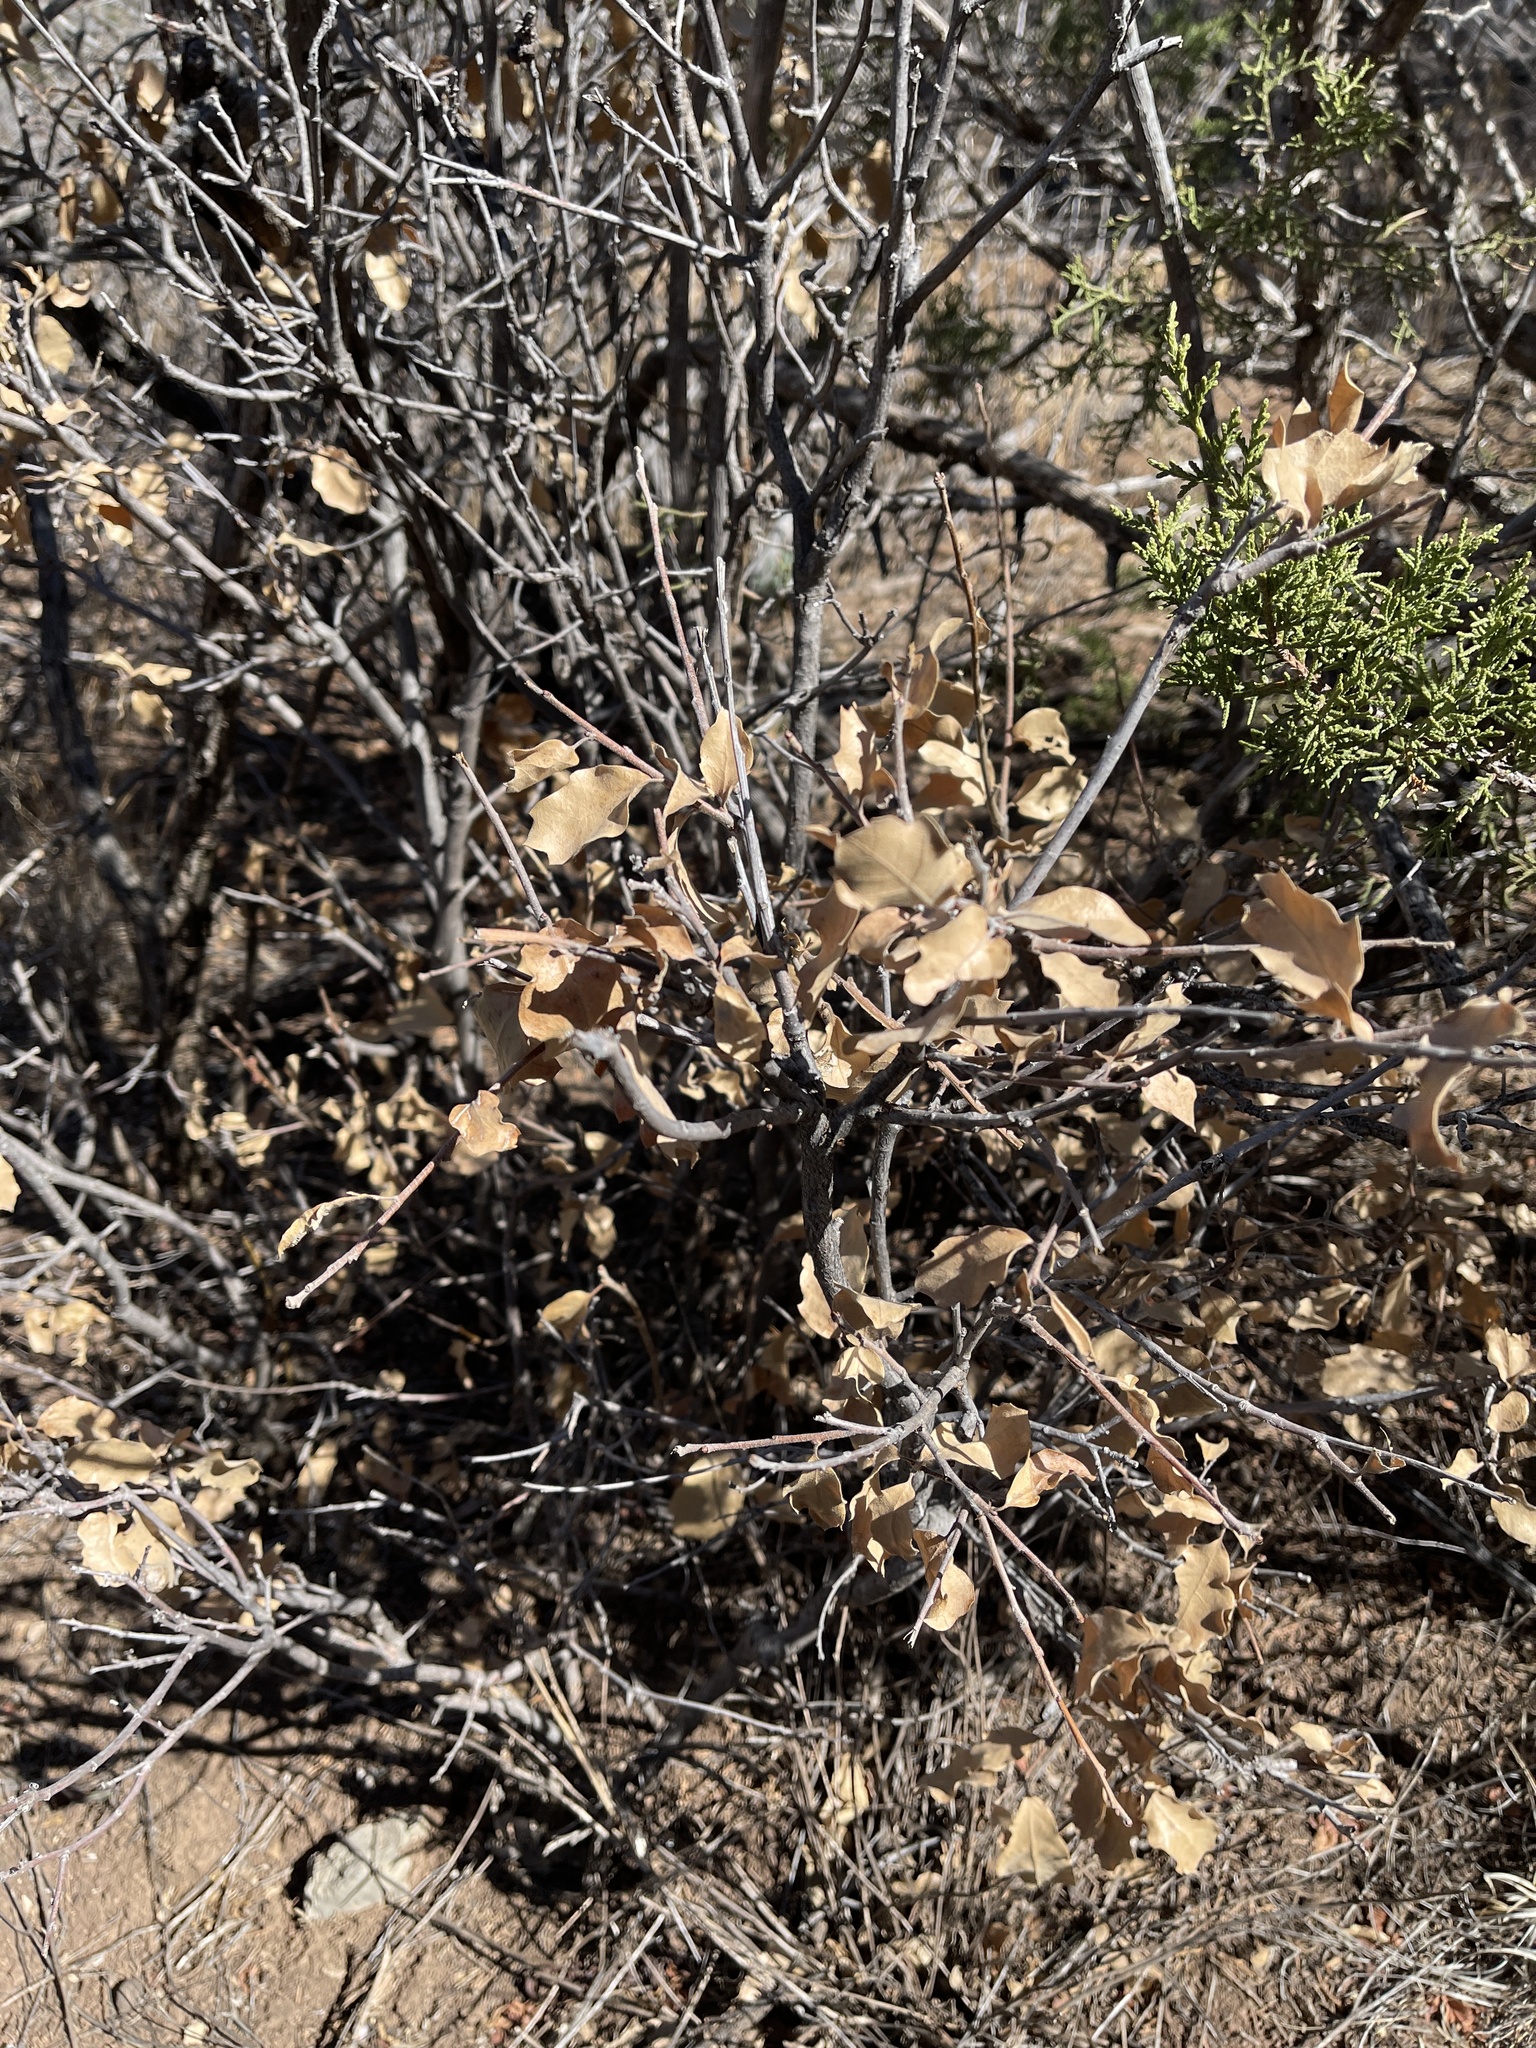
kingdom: Plantae
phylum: Tracheophyta
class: Magnoliopsida
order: Fagales
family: Fagaceae
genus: Quercus
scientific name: Quercus undulata
